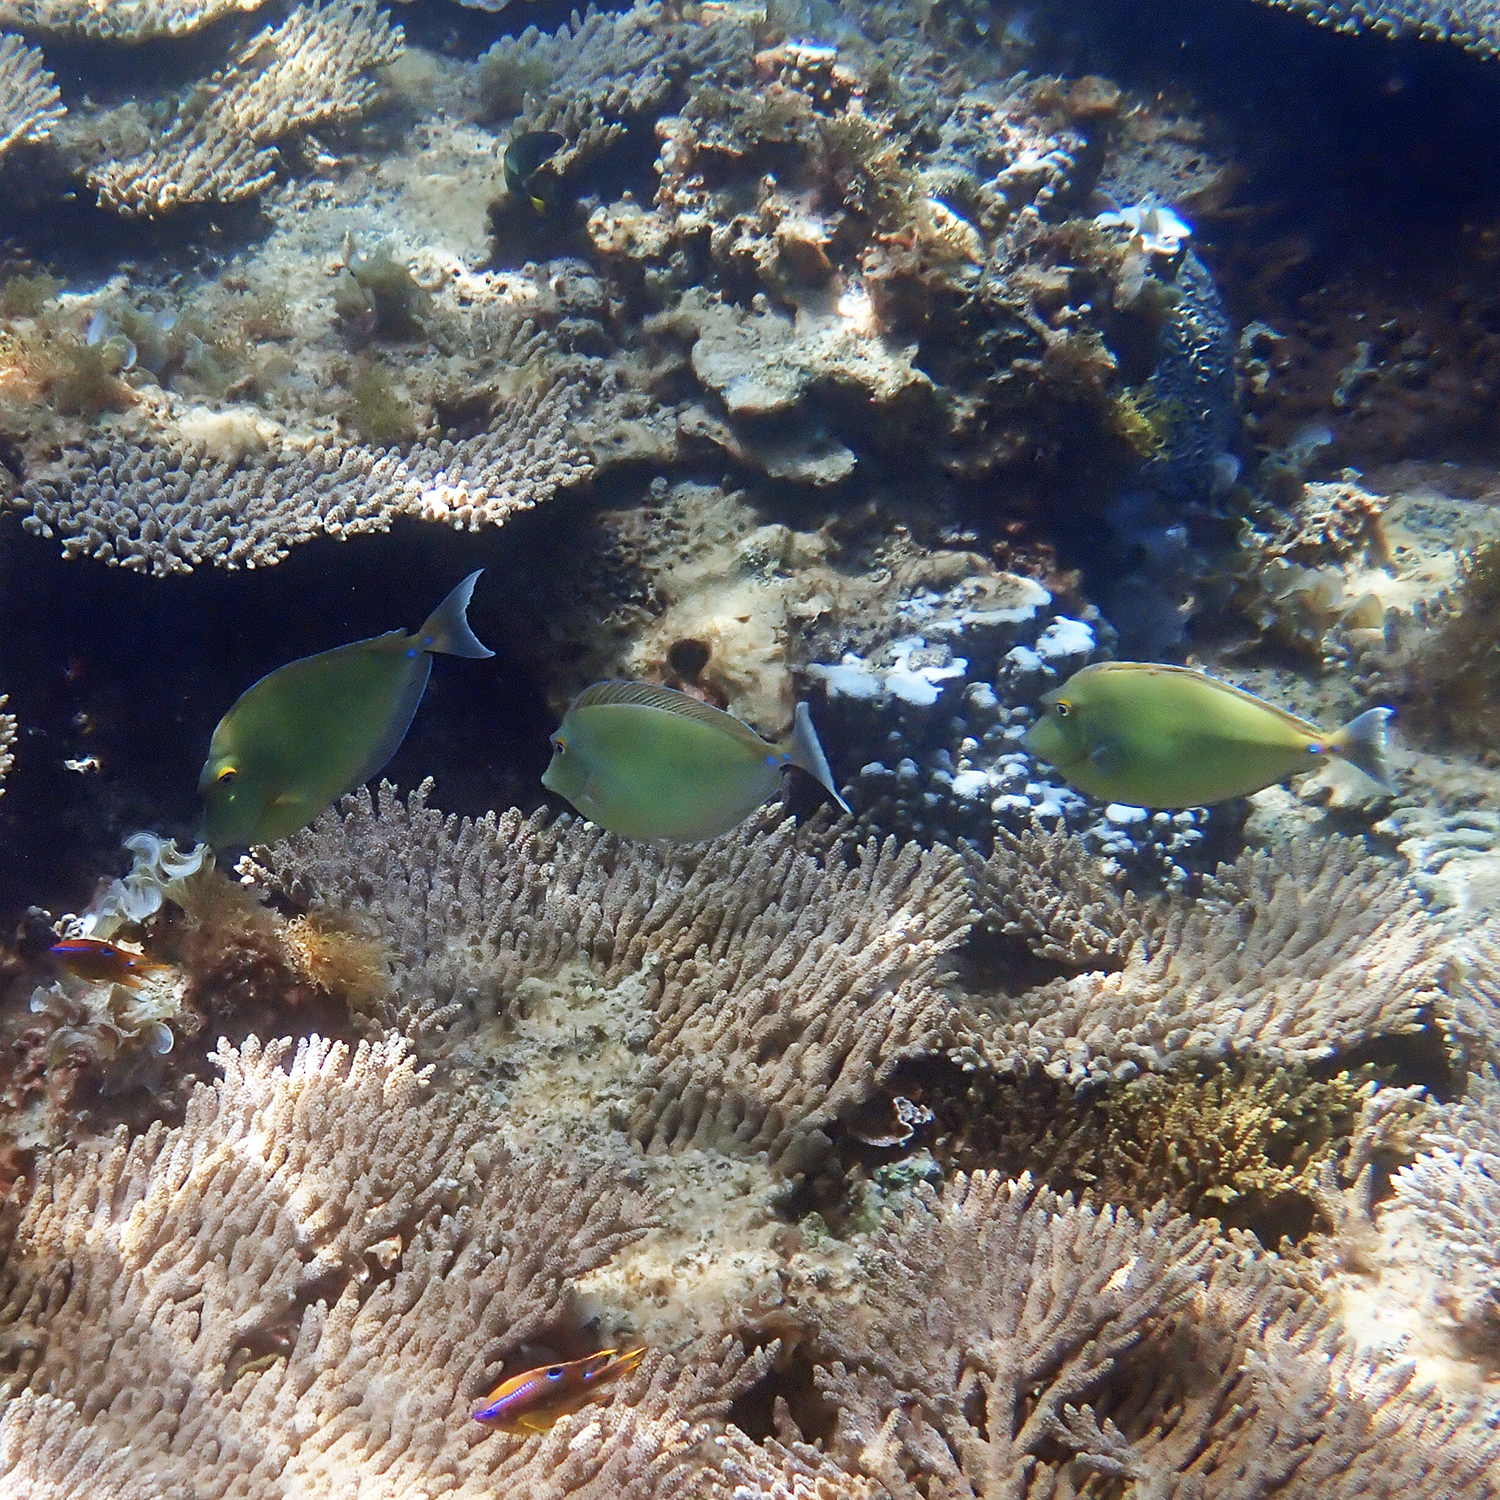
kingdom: Animalia
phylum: Chordata
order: Perciformes
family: Acanthuridae
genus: Naso
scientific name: Naso unicornis
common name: Bluespine unicornfish
